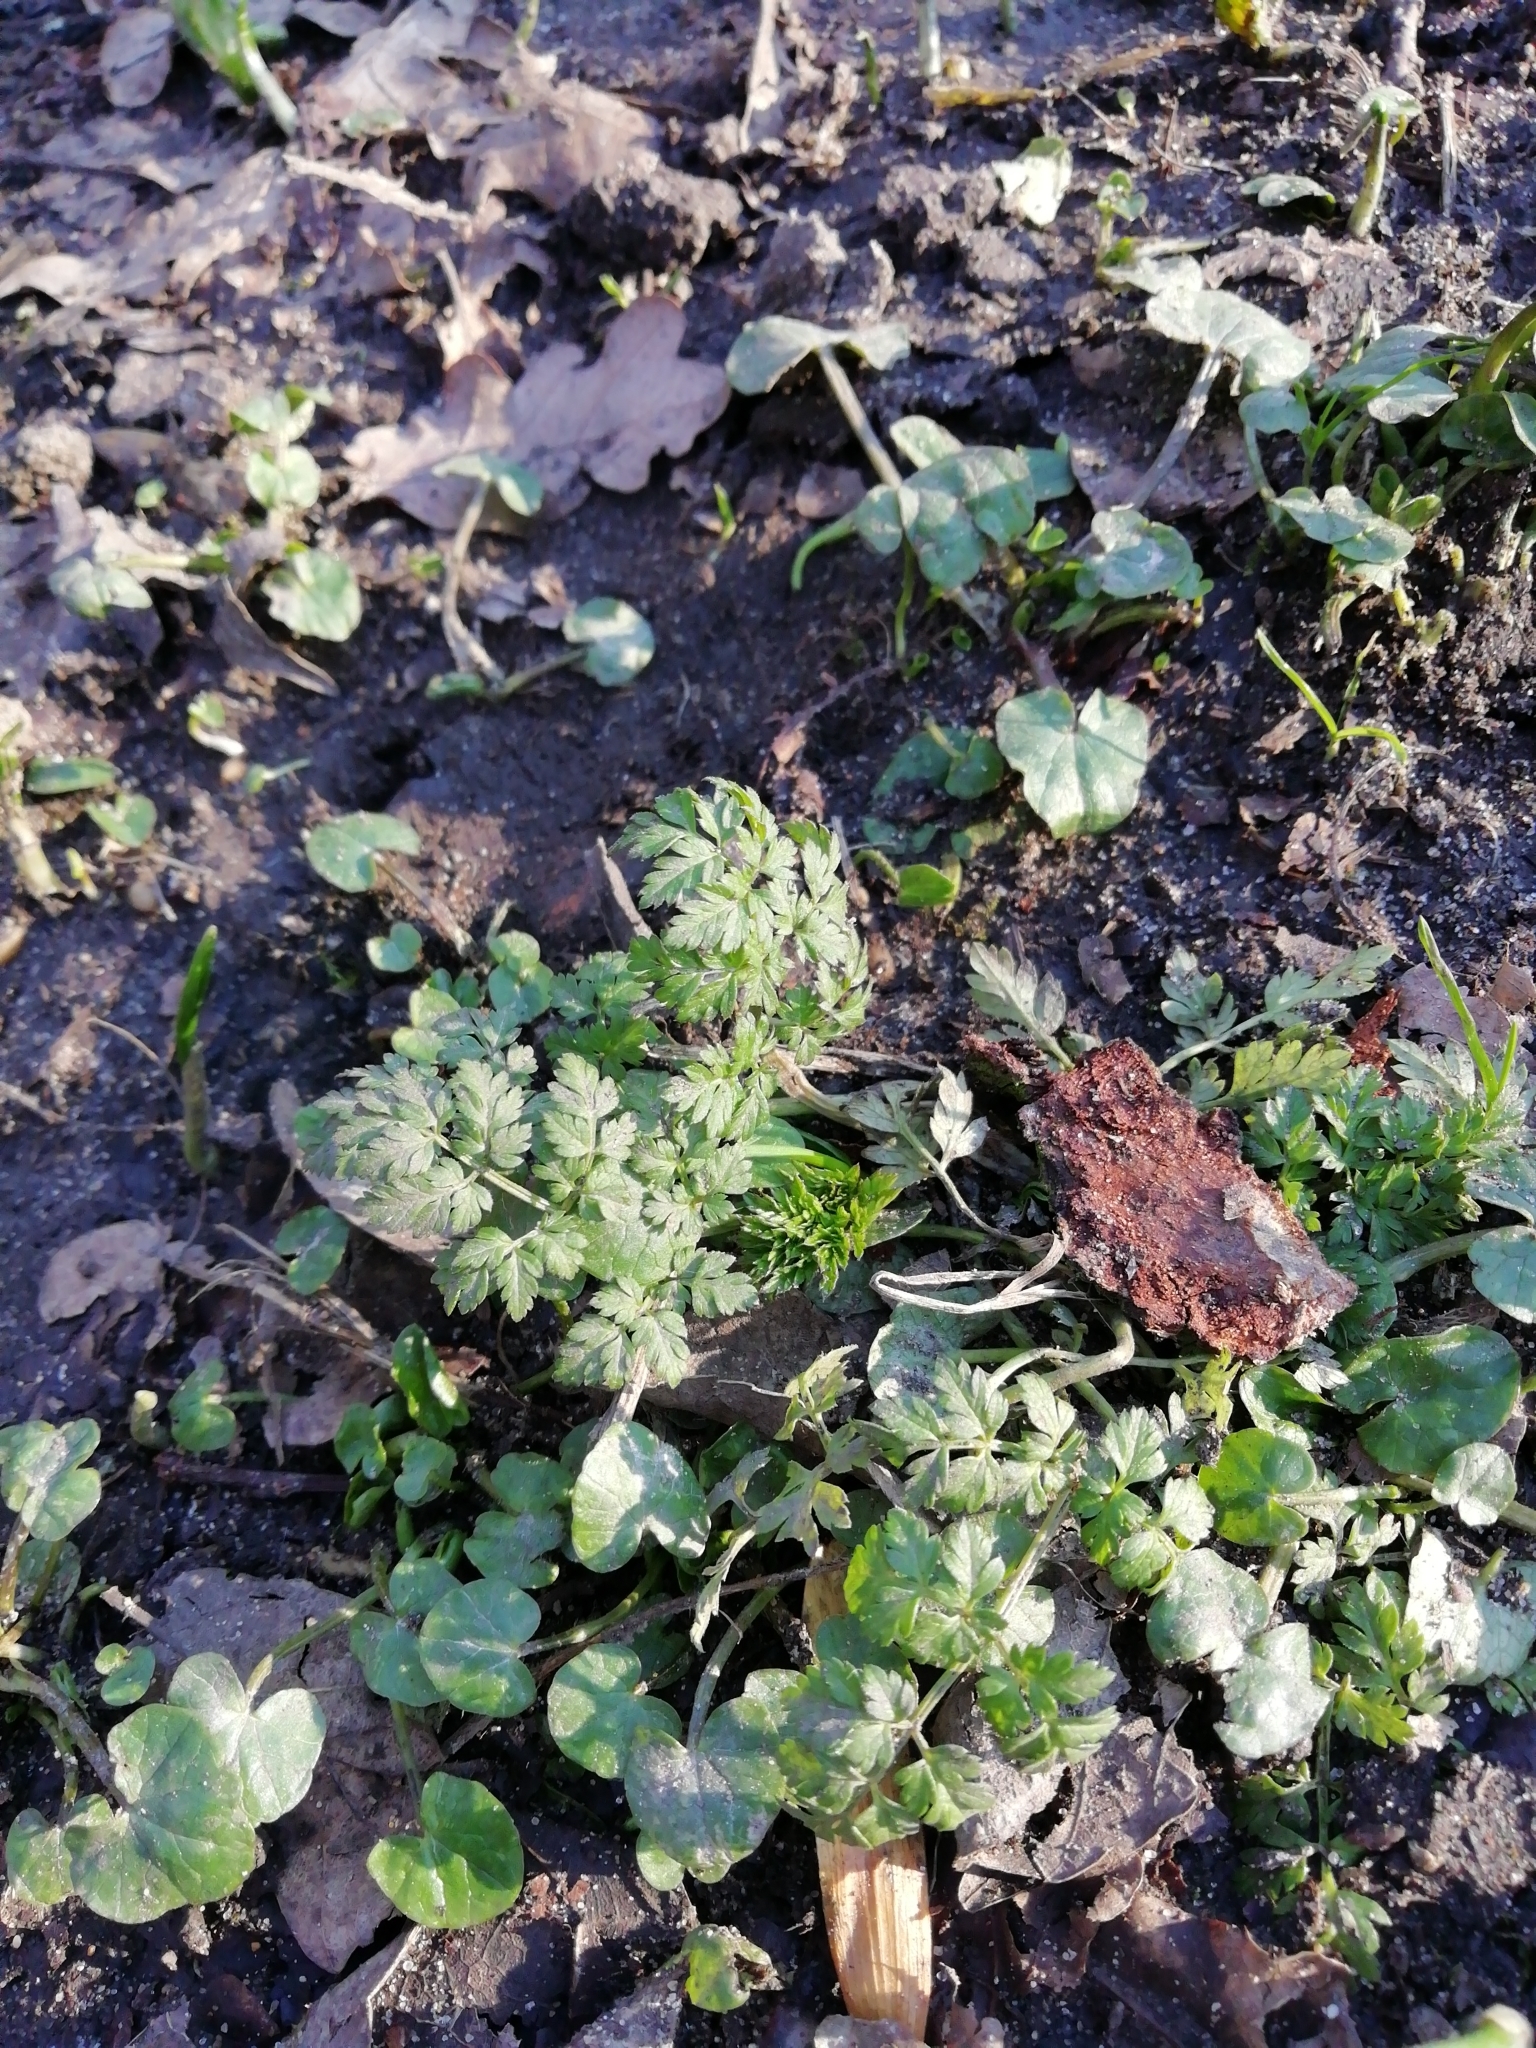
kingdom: Plantae
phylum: Tracheophyta
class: Magnoliopsida
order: Apiales
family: Apiaceae
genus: Anthriscus
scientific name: Anthriscus sylvestris
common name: Cow parsley
